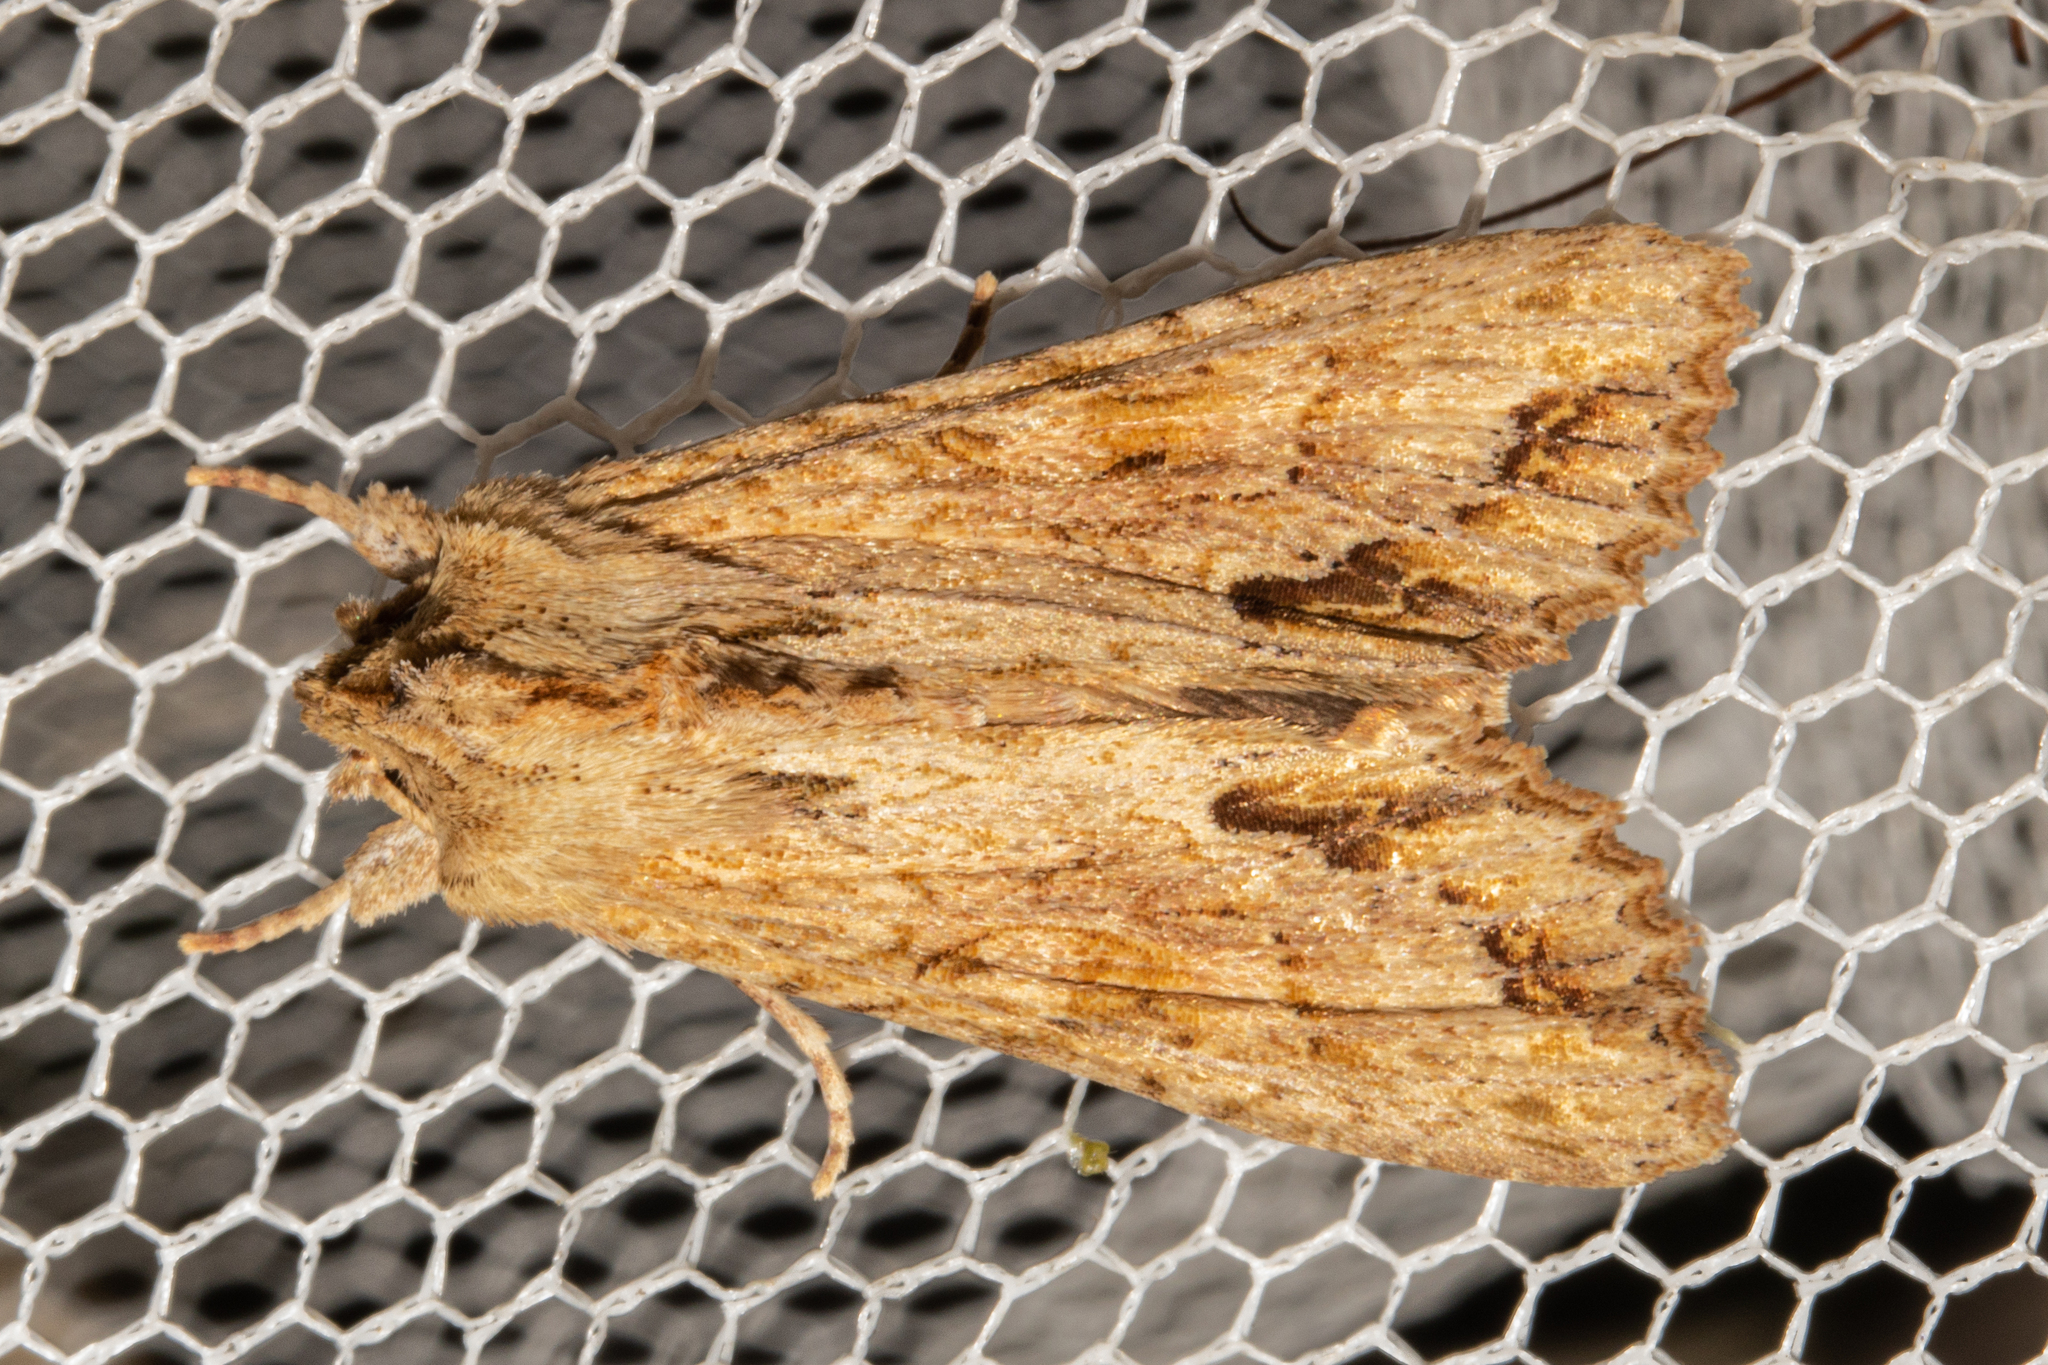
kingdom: Animalia
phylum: Arthropoda
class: Insecta
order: Lepidoptera
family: Noctuidae
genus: Ichneutica
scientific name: Ichneutica mollis
